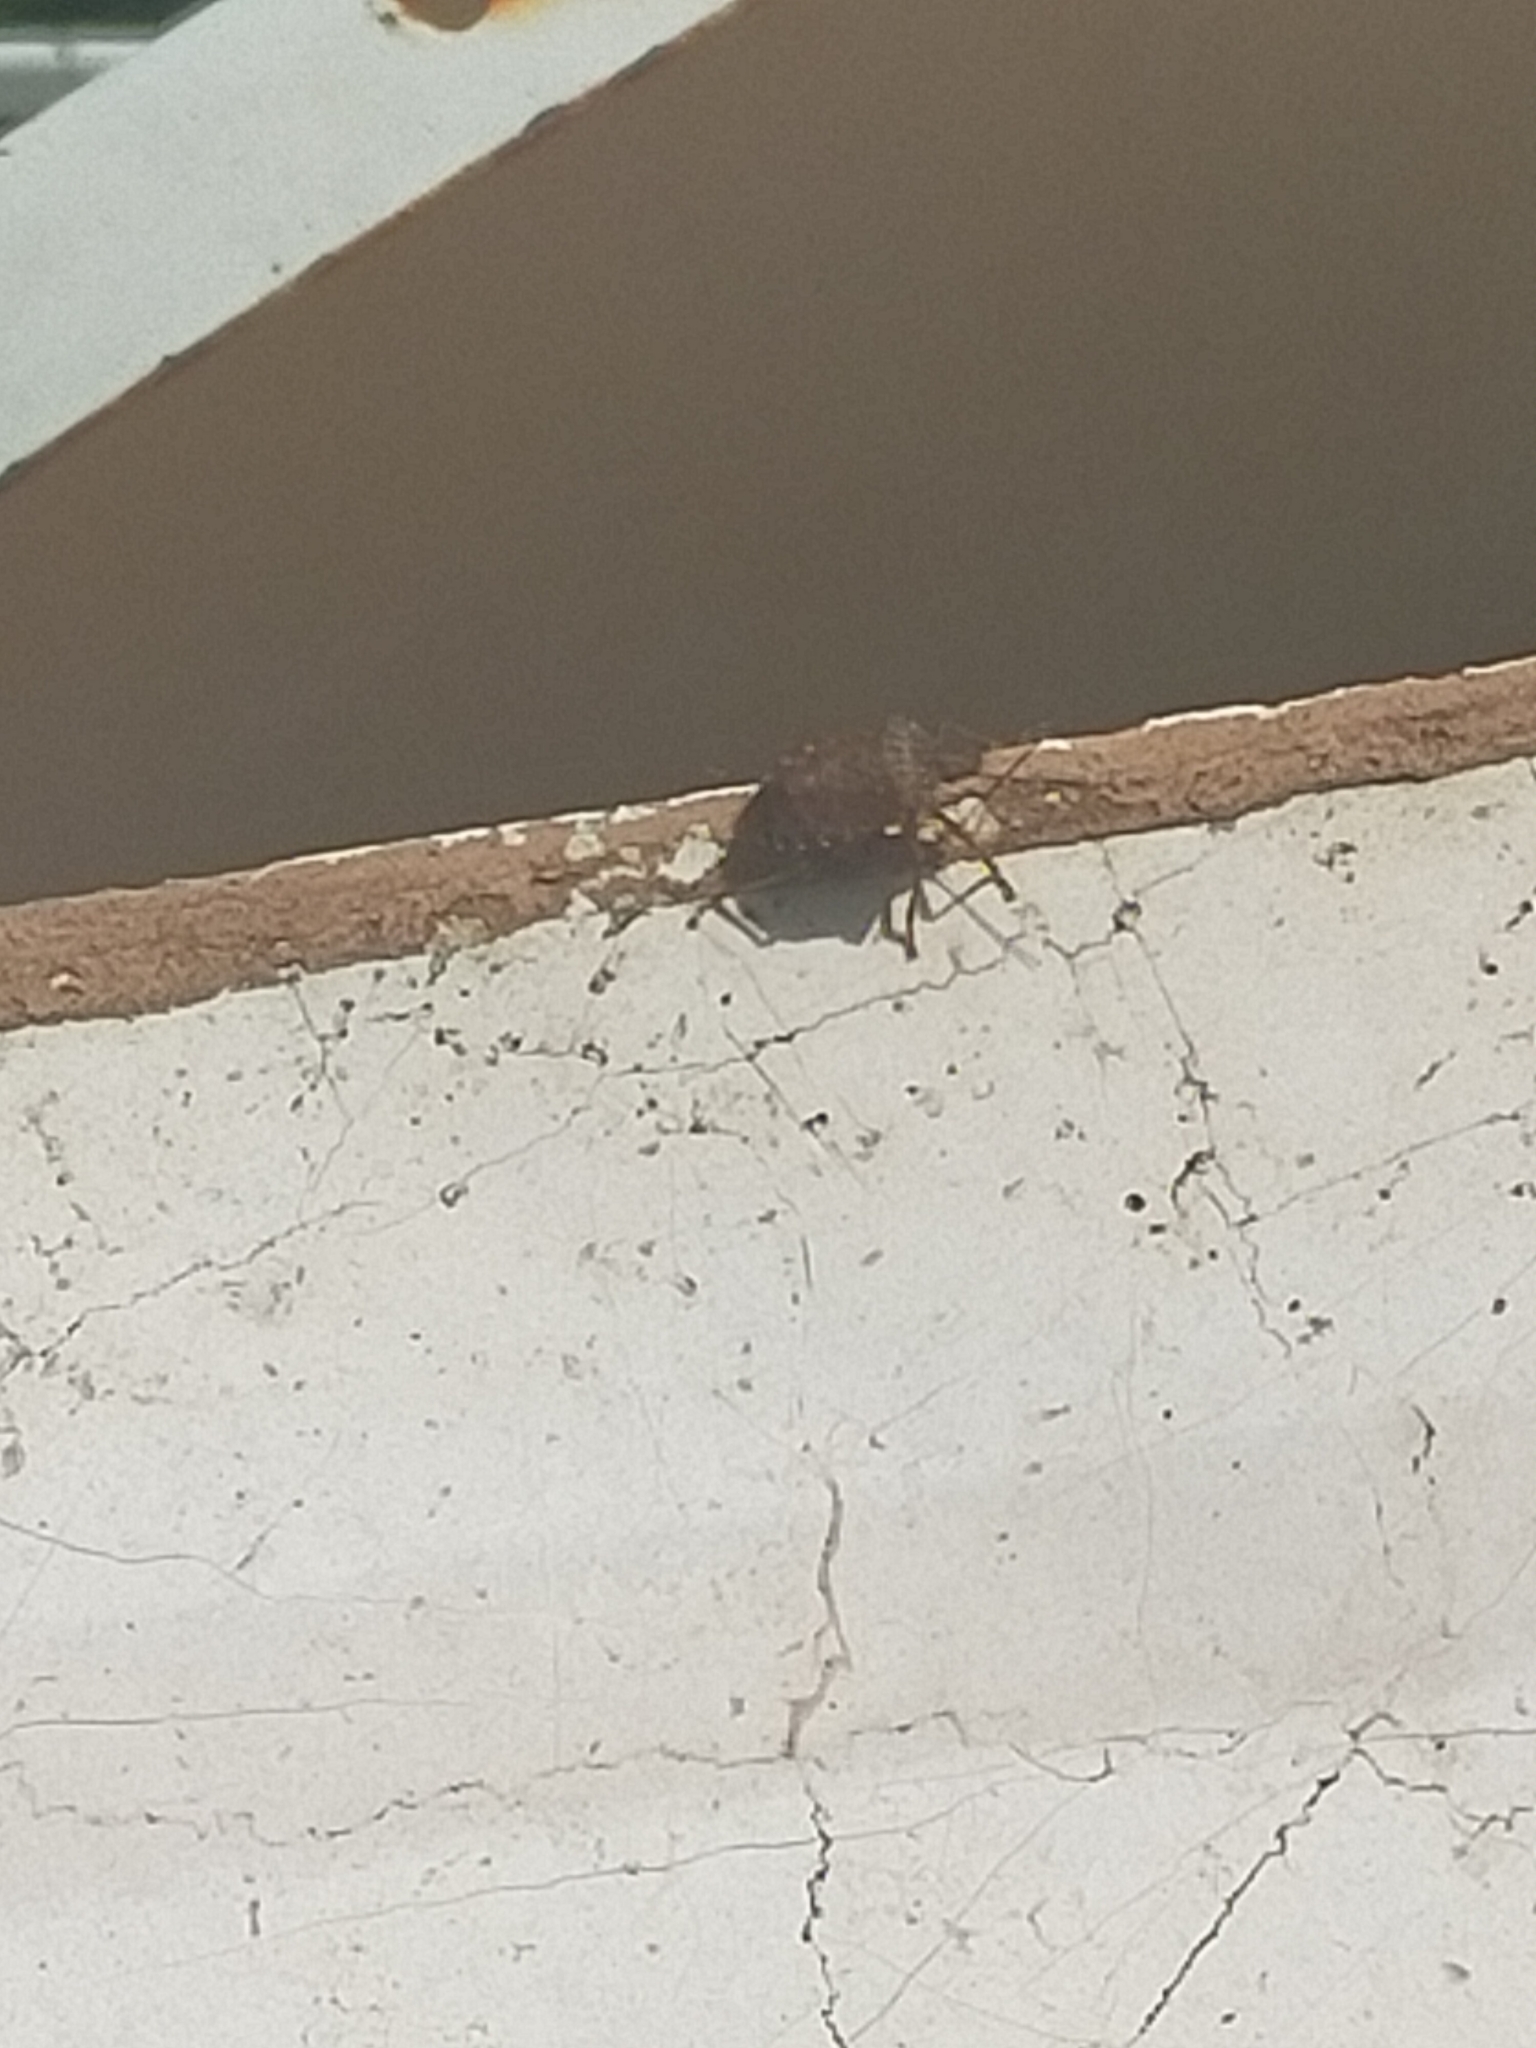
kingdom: Animalia
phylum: Arthropoda
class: Insecta
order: Hemiptera
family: Pentatomidae
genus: Halyomorpha
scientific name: Halyomorpha halys
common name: Brown marmorated stink bug
